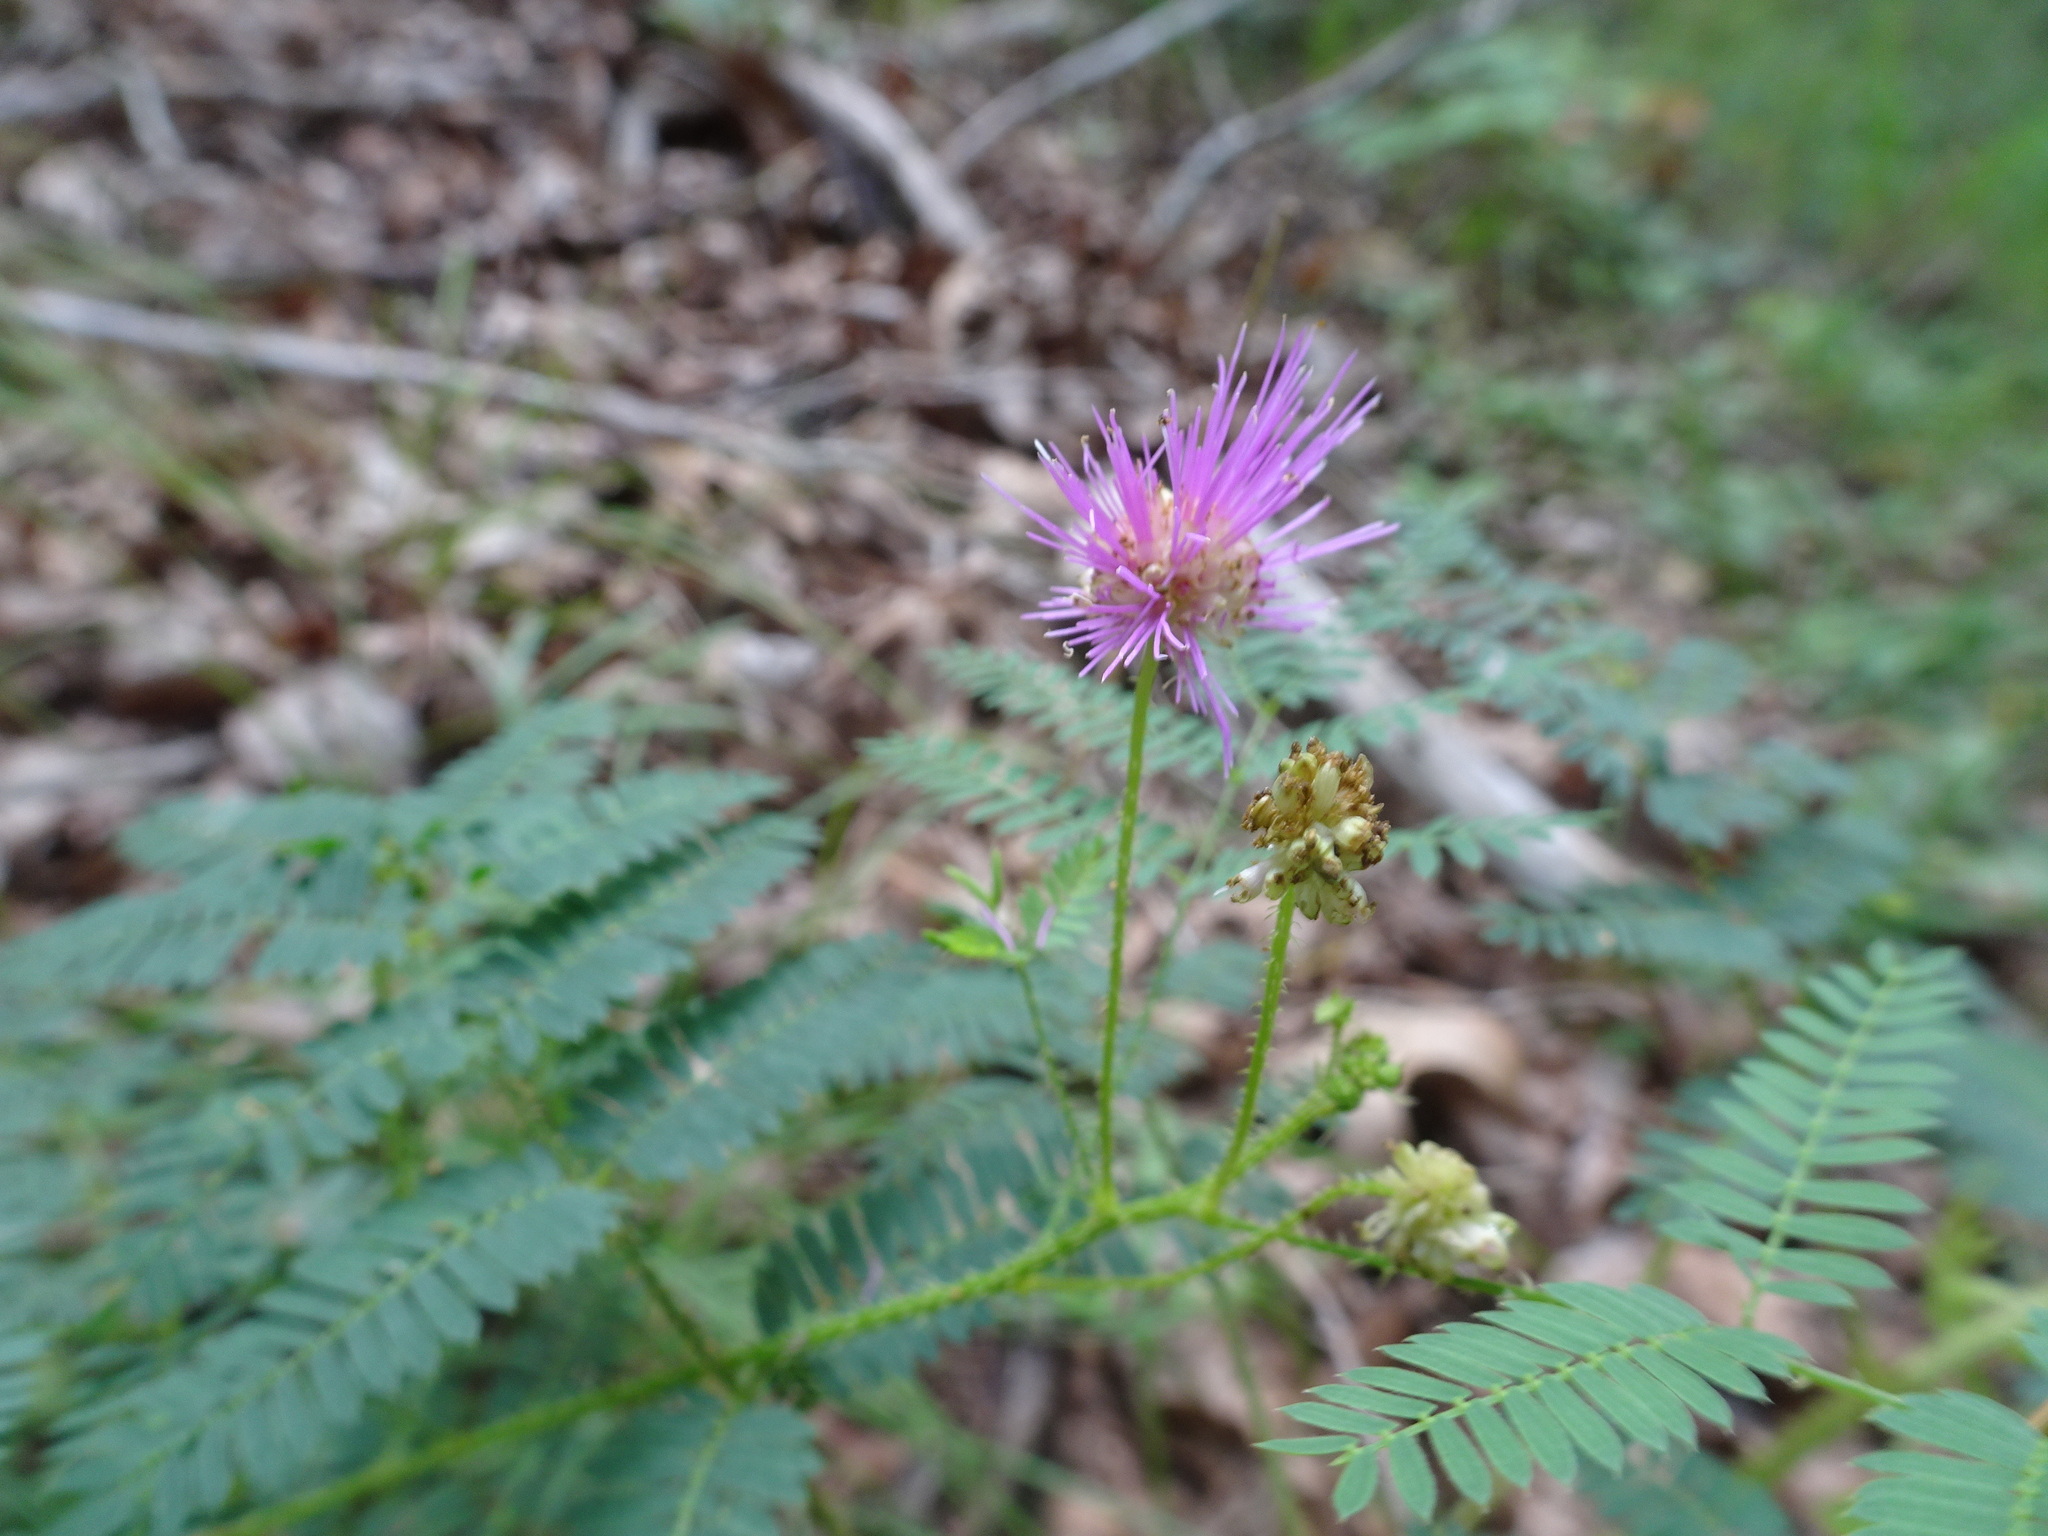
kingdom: Plantae
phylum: Tracheophyta
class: Magnoliopsida
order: Fabales
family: Fabaceae
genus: Mimosa
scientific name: Mimosa quadrivalvis
